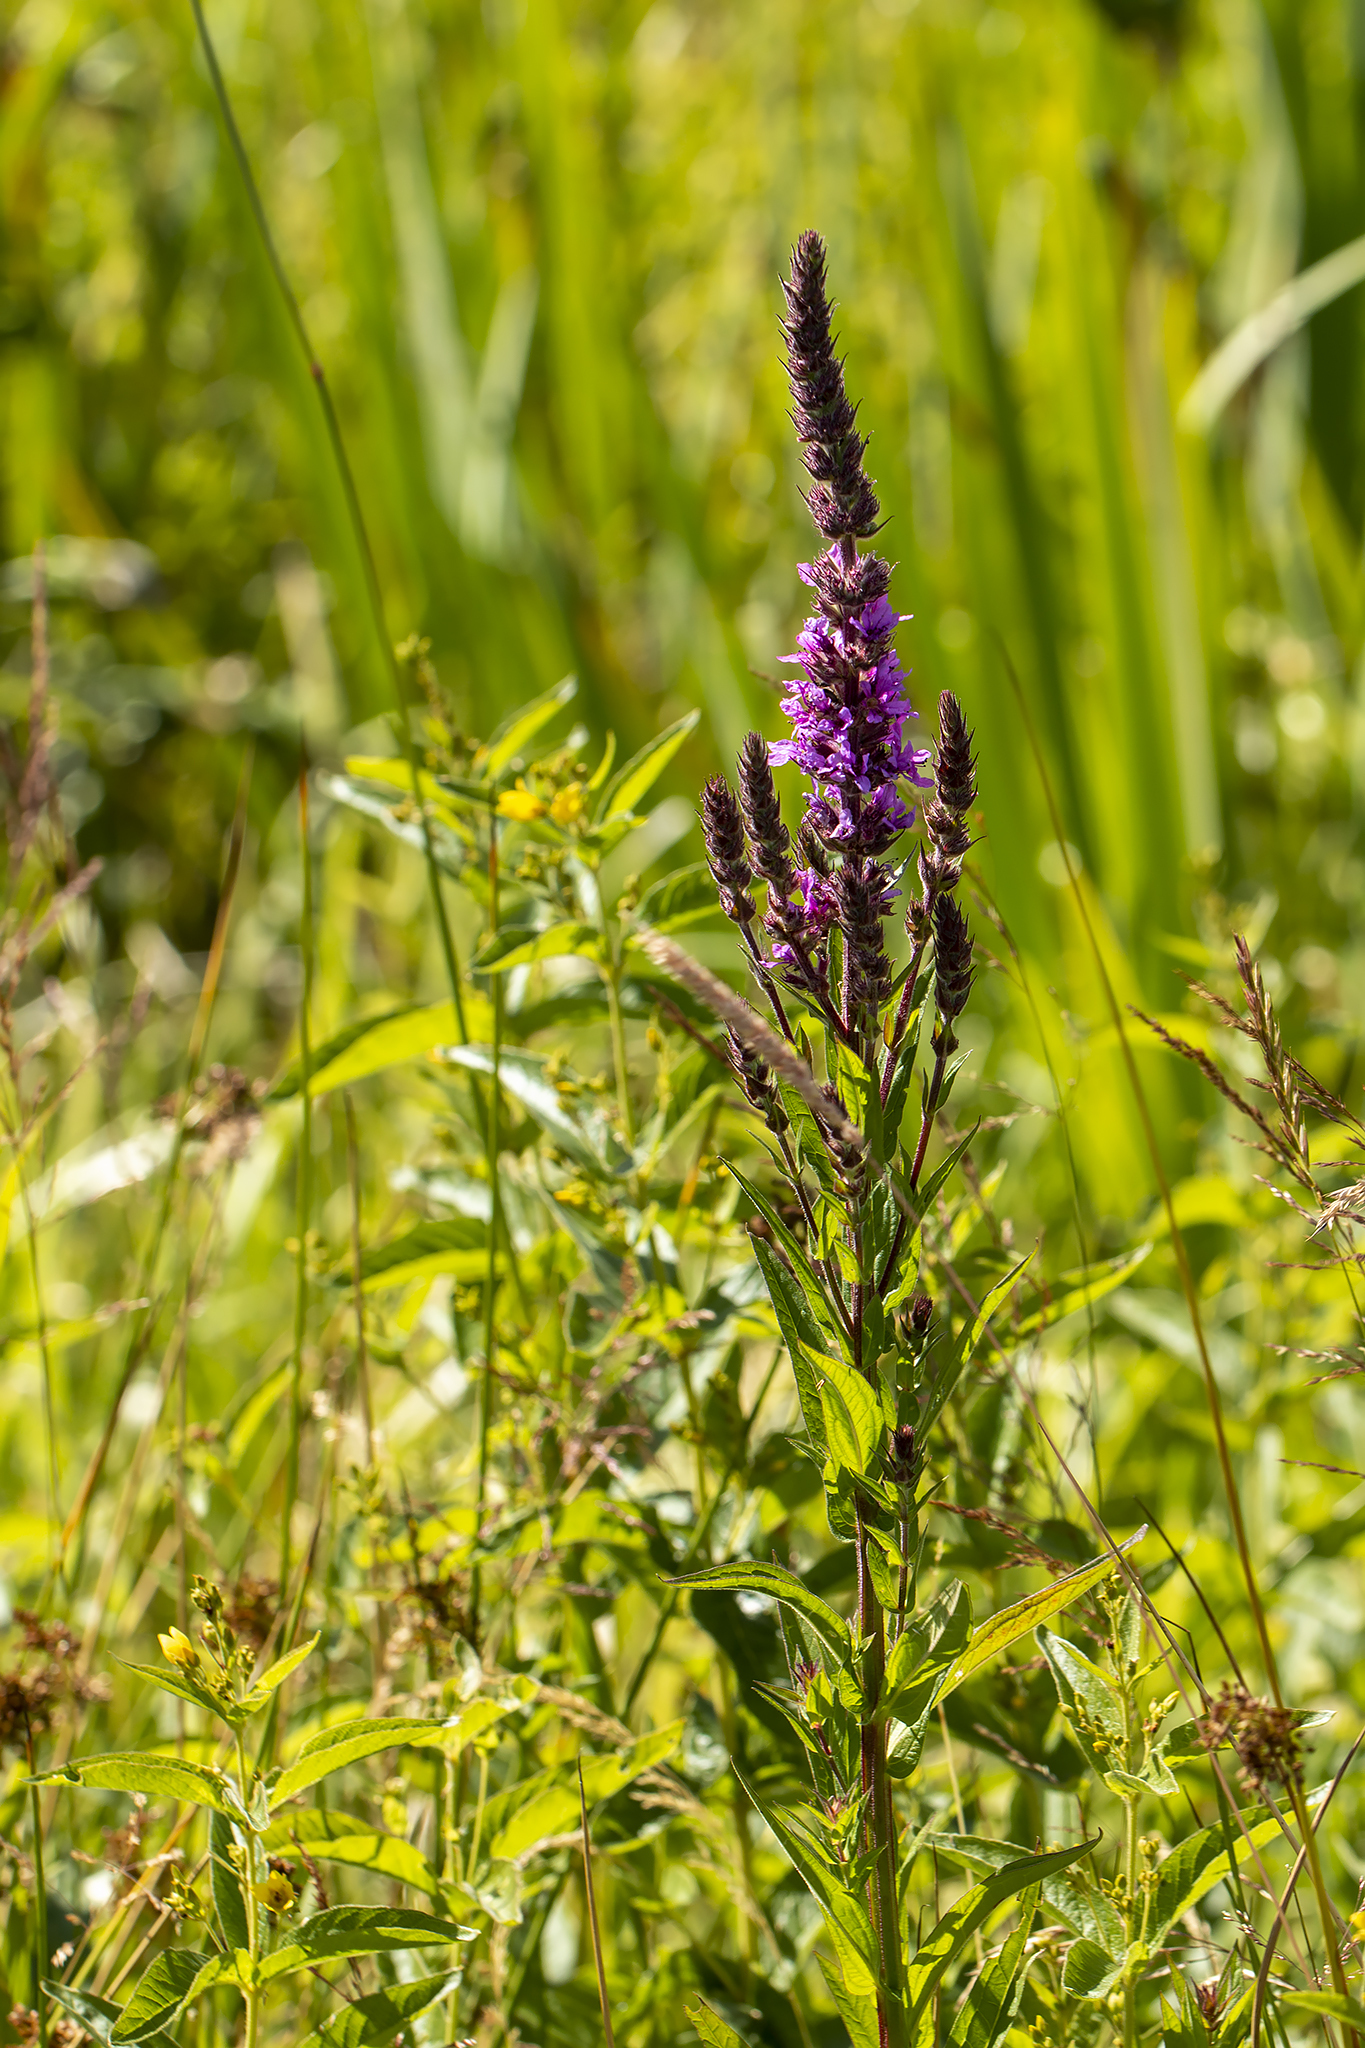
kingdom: Plantae
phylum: Tracheophyta
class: Magnoliopsida
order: Myrtales
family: Lythraceae
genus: Lythrum
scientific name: Lythrum salicaria
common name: Purple loosestrife
